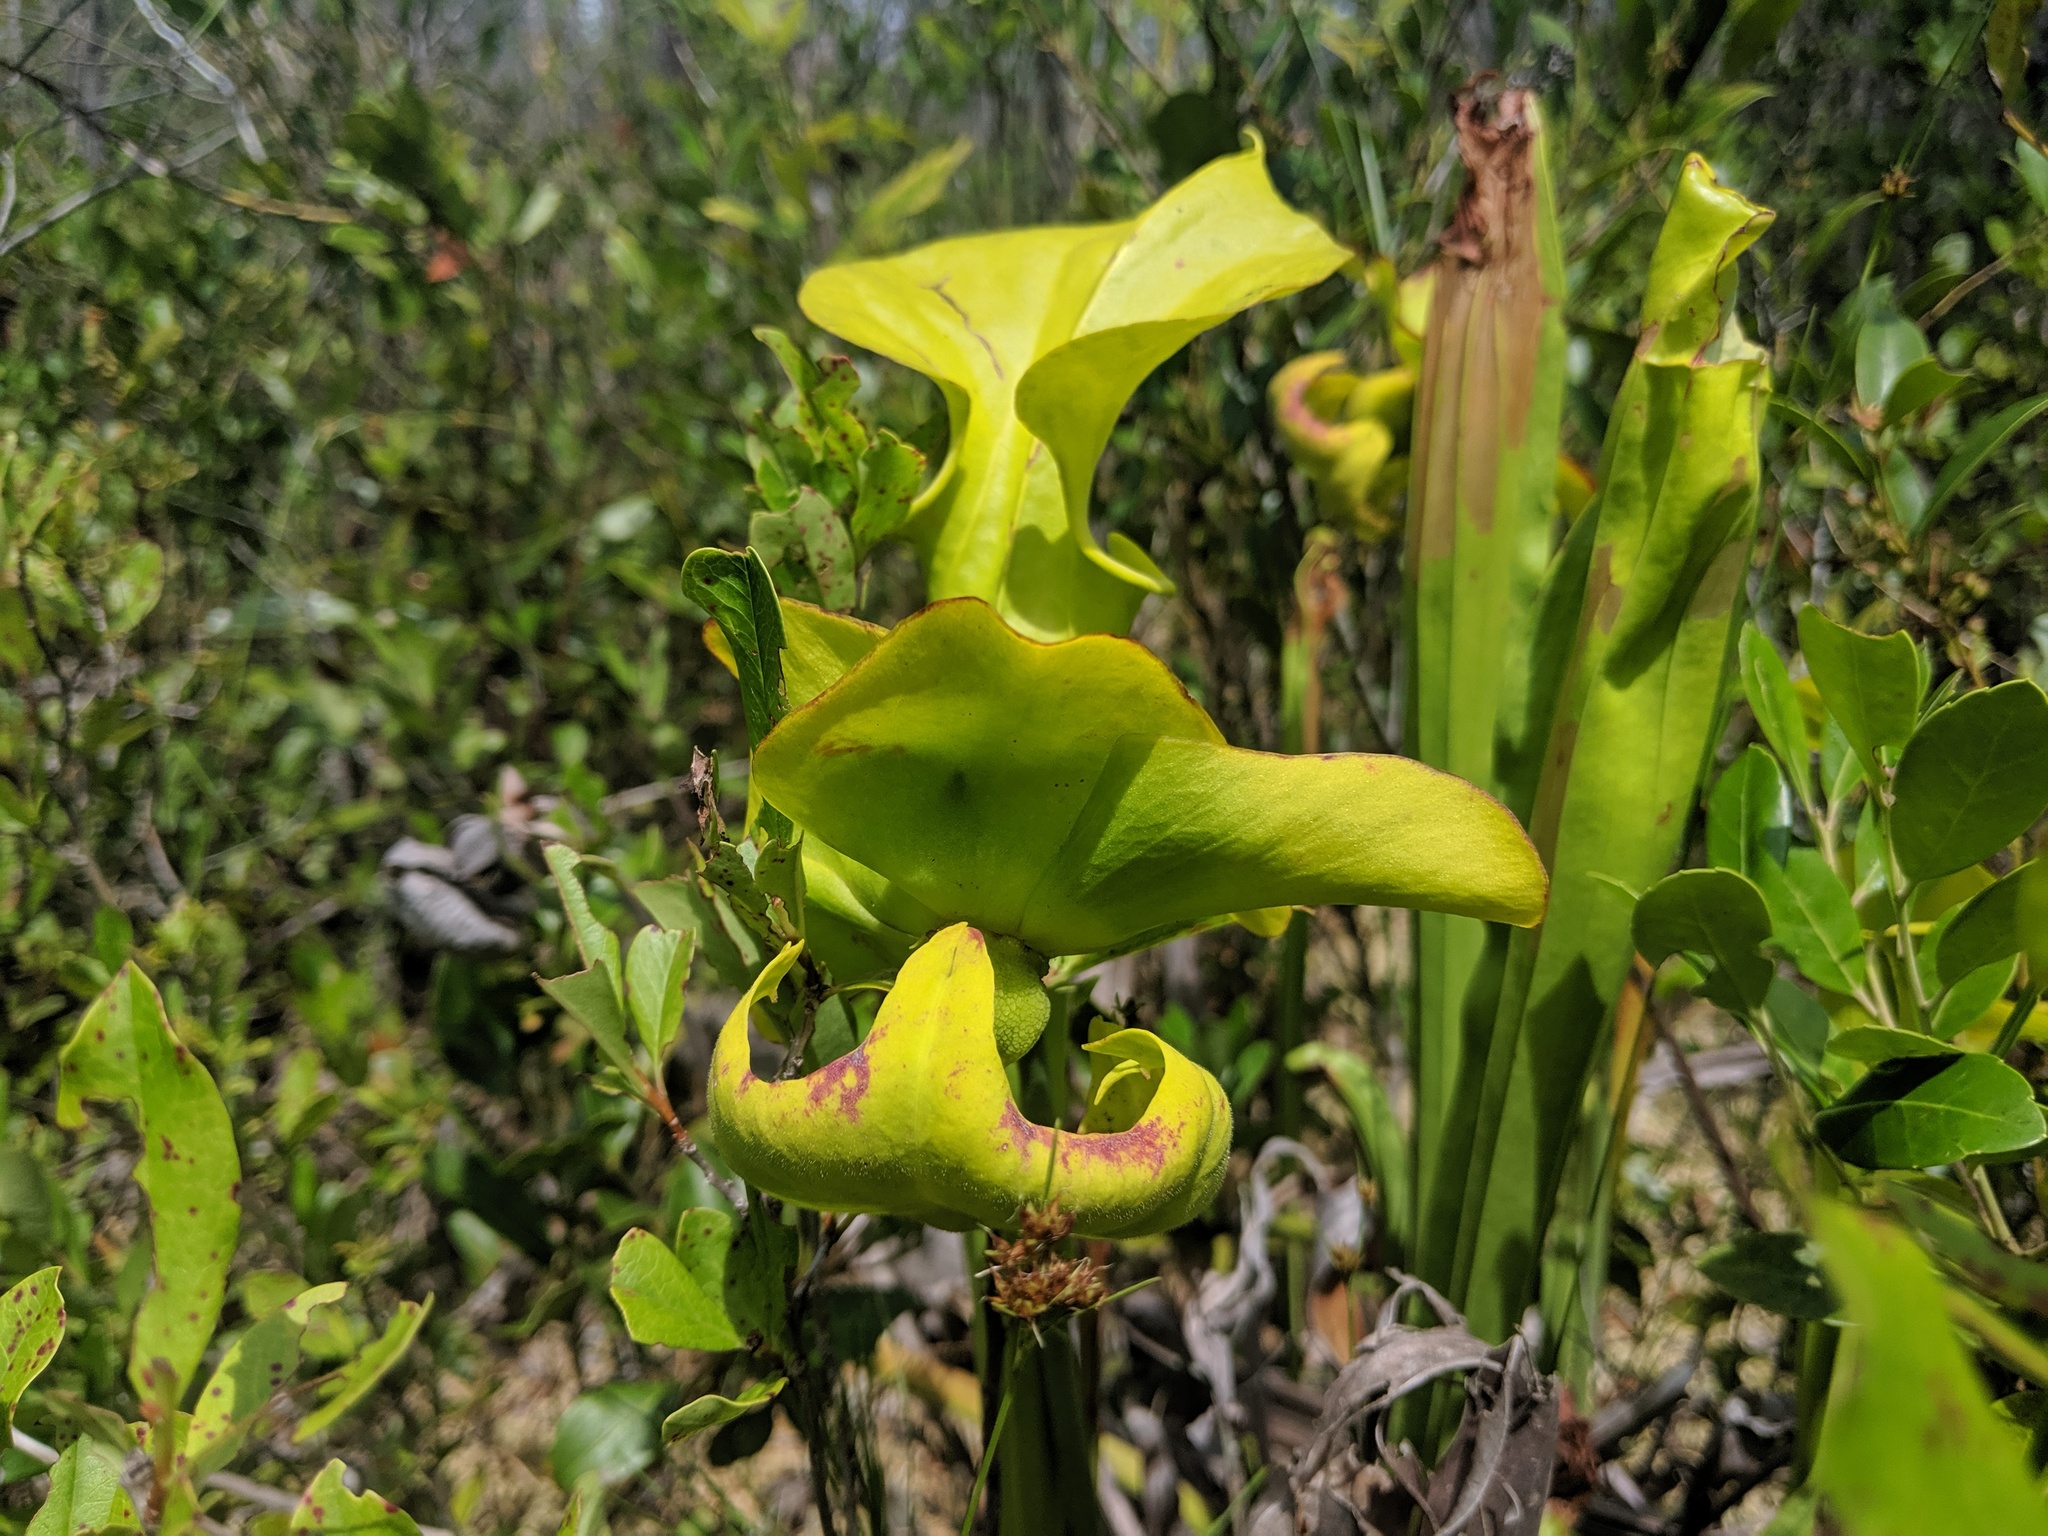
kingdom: Plantae
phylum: Tracheophyta
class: Magnoliopsida
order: Ericales
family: Sarraceniaceae
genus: Sarracenia
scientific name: Sarracenia flava
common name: Trumpets
